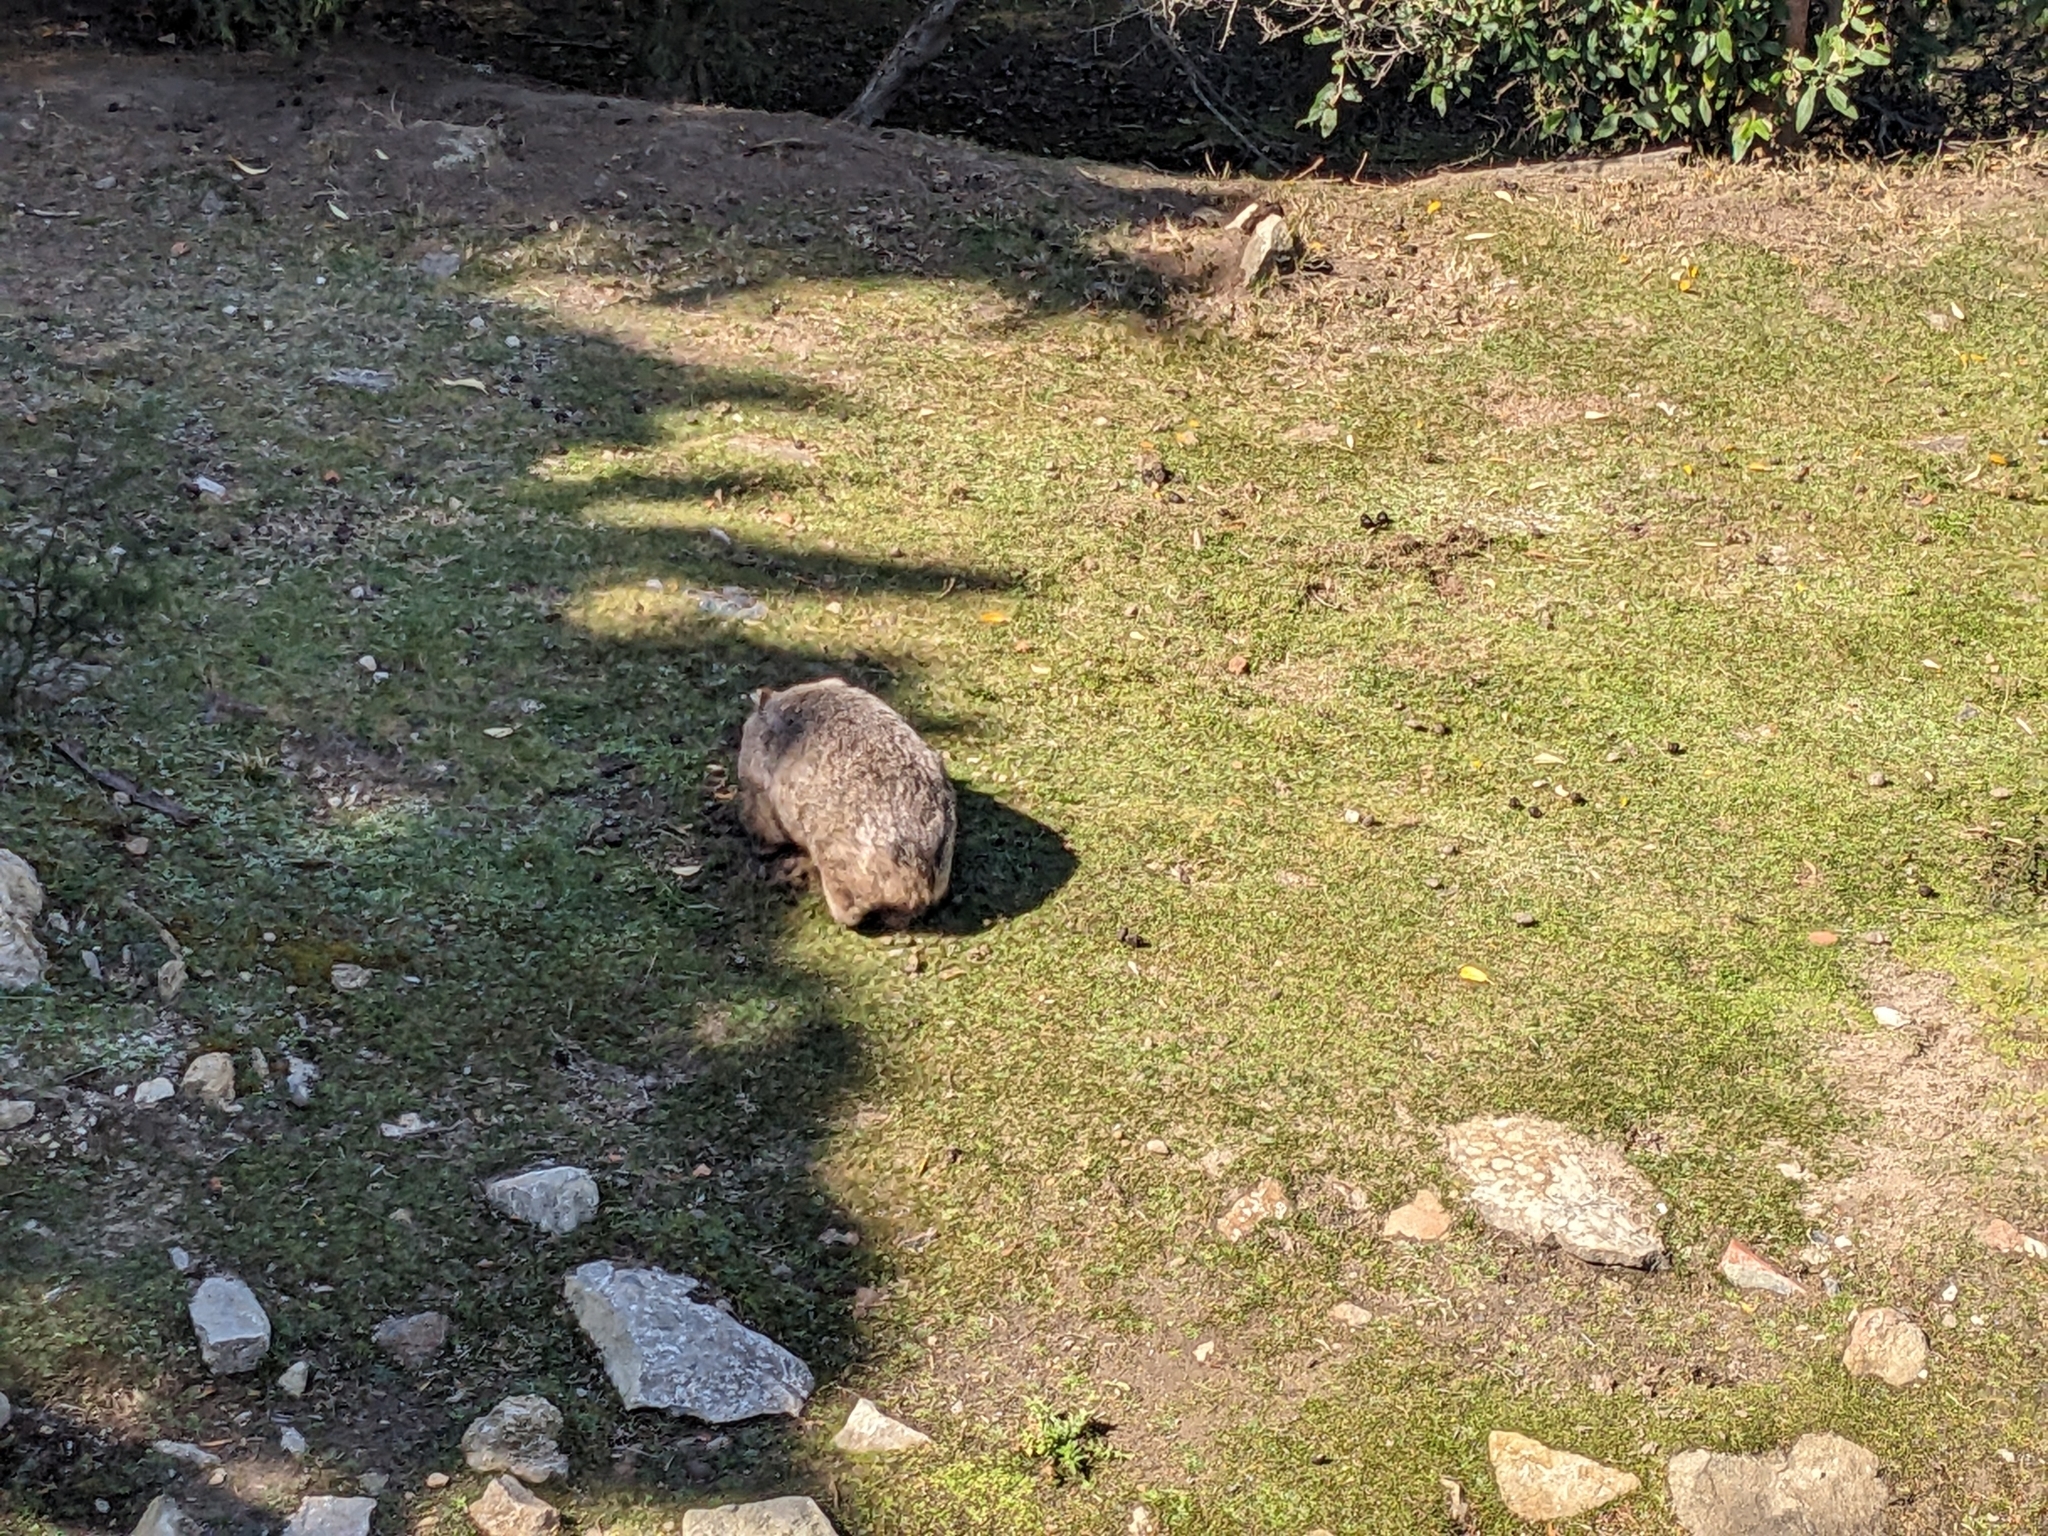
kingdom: Animalia
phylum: Chordata
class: Mammalia
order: Diprotodontia
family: Vombatidae
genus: Vombatus
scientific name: Vombatus ursinus
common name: Common wombat
